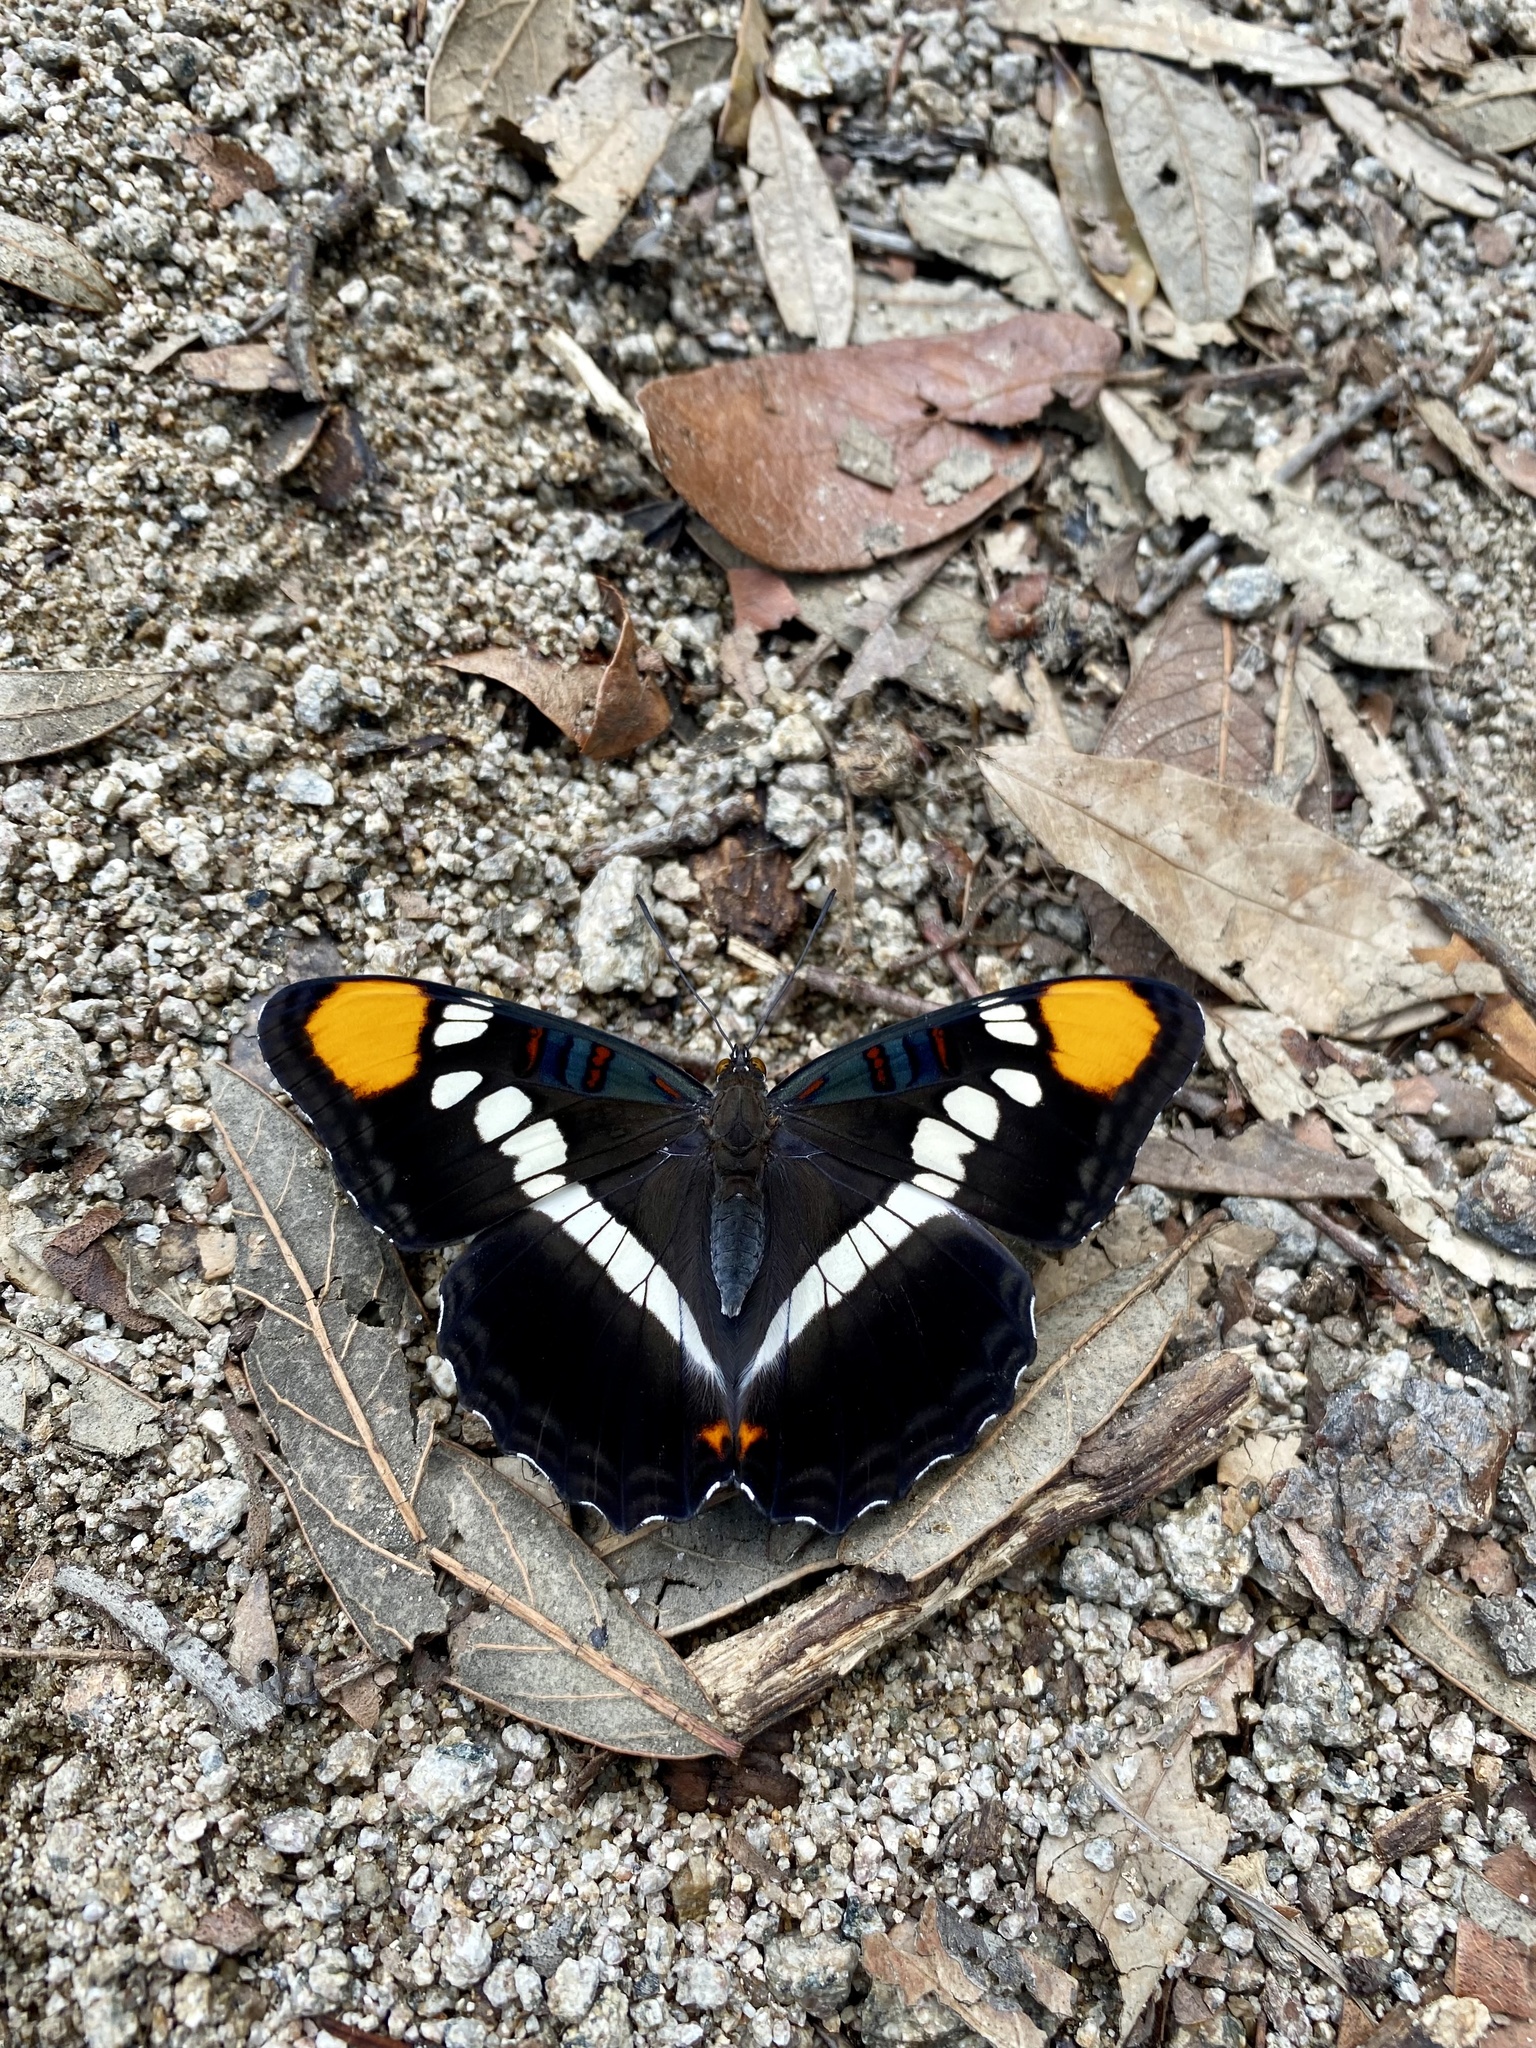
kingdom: Animalia
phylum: Arthropoda
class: Insecta
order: Lepidoptera
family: Nymphalidae
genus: Limenitis
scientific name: Limenitis bredowii
